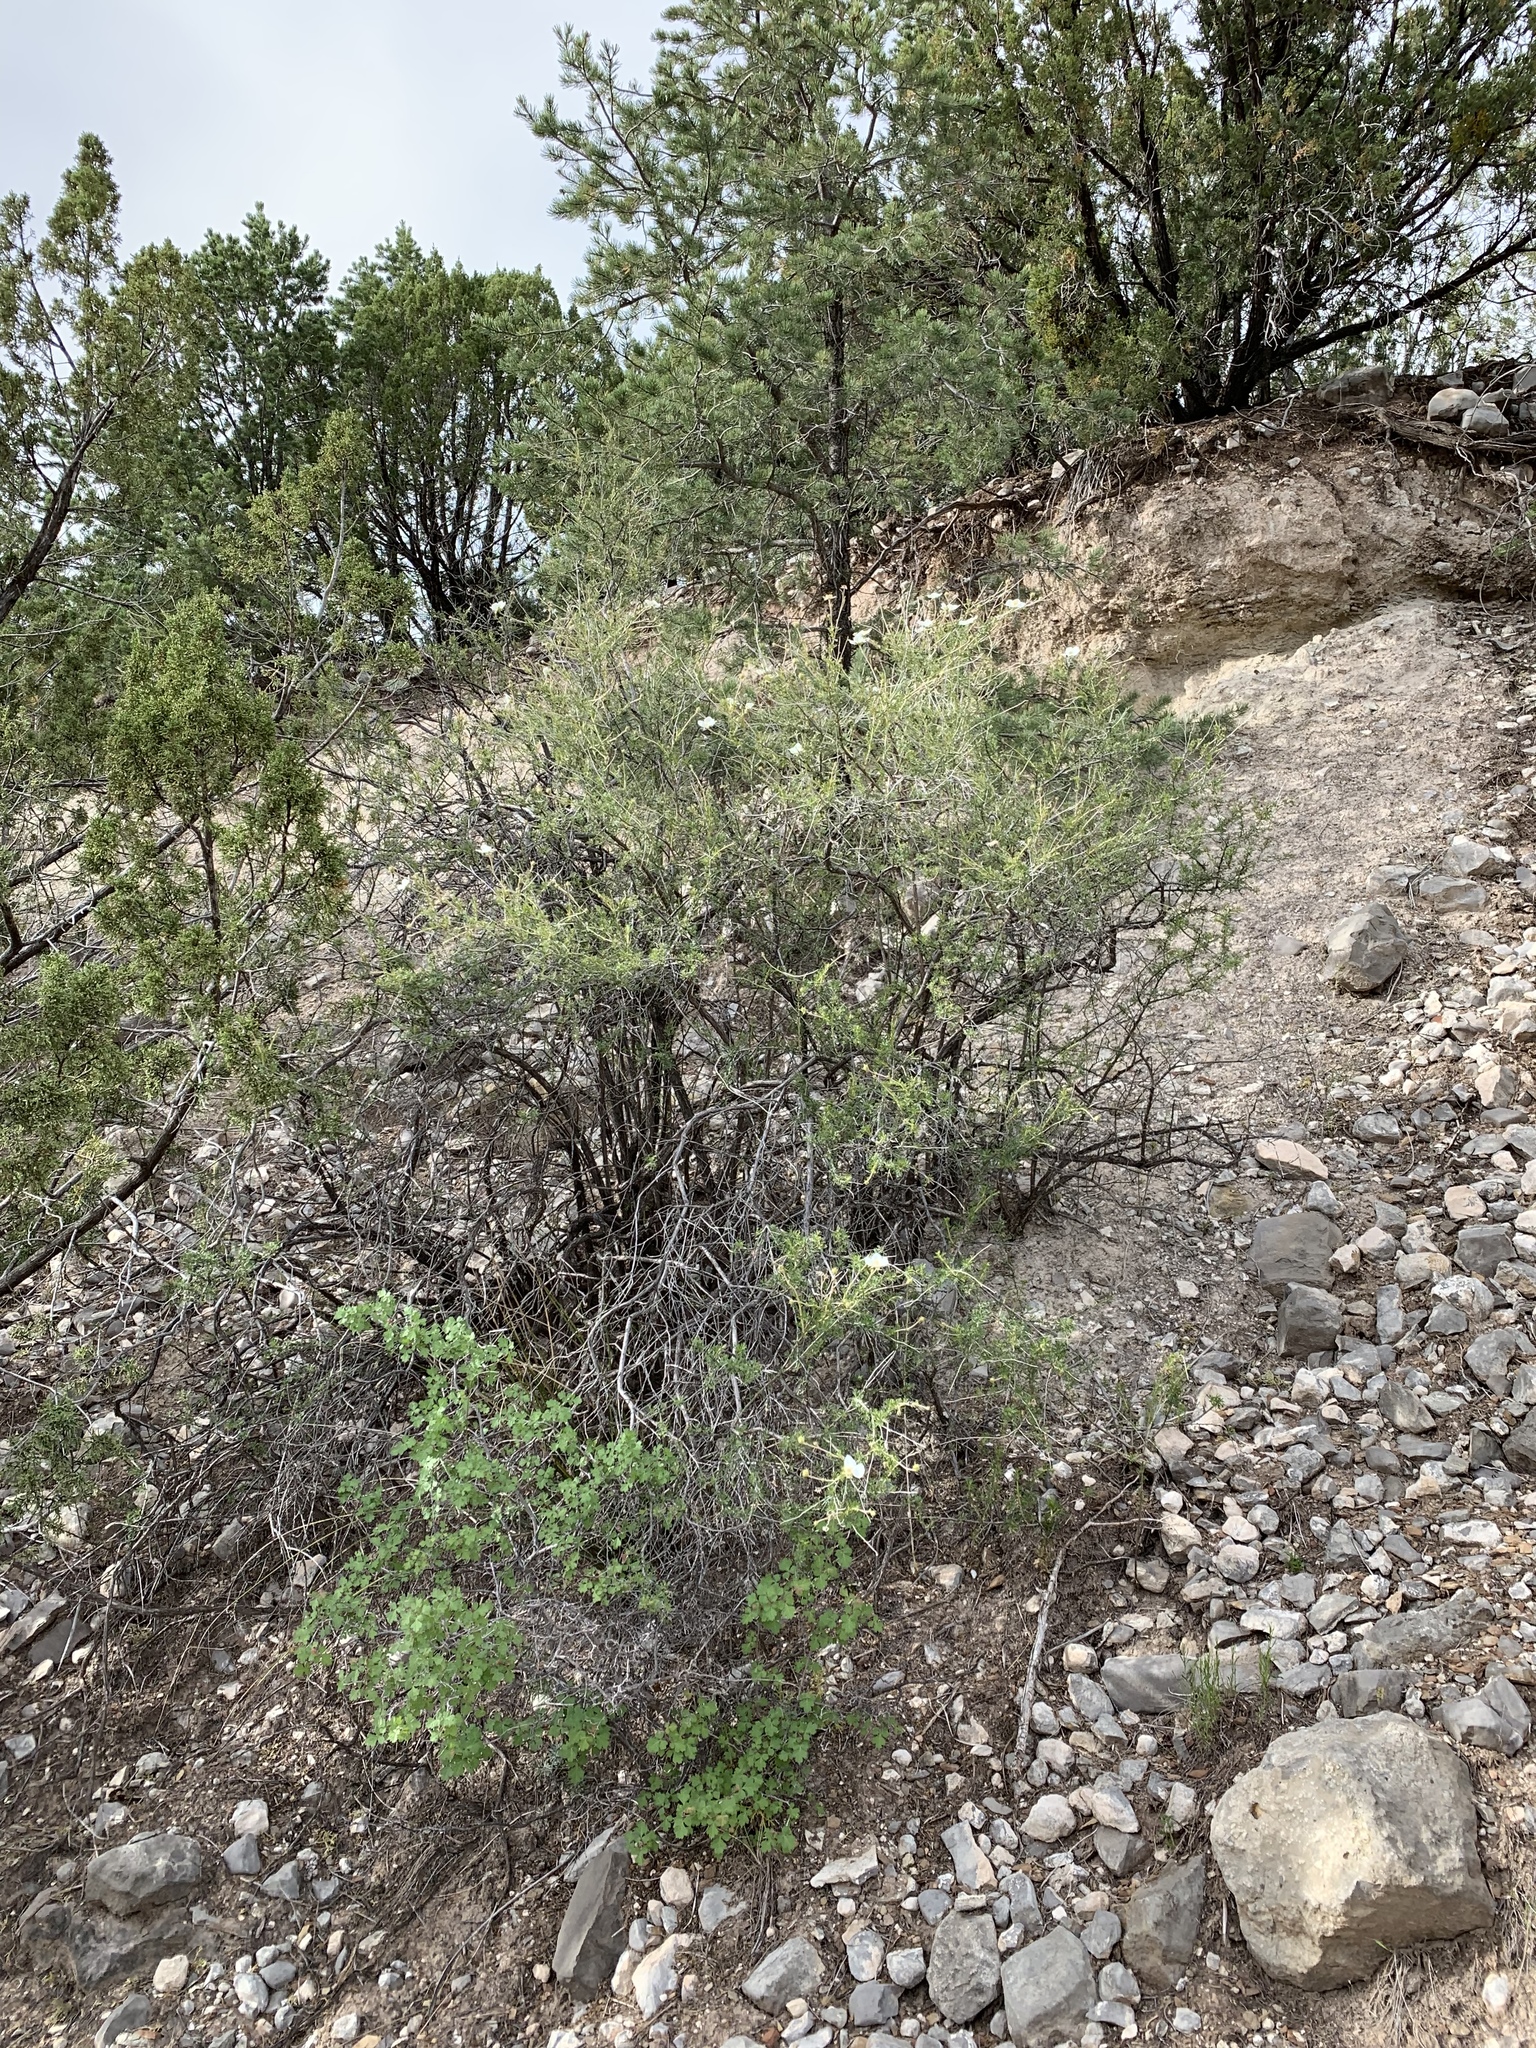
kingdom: Plantae
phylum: Tracheophyta
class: Magnoliopsida
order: Rosales
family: Rosaceae
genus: Fallugia
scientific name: Fallugia paradoxa
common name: Apache-plume
